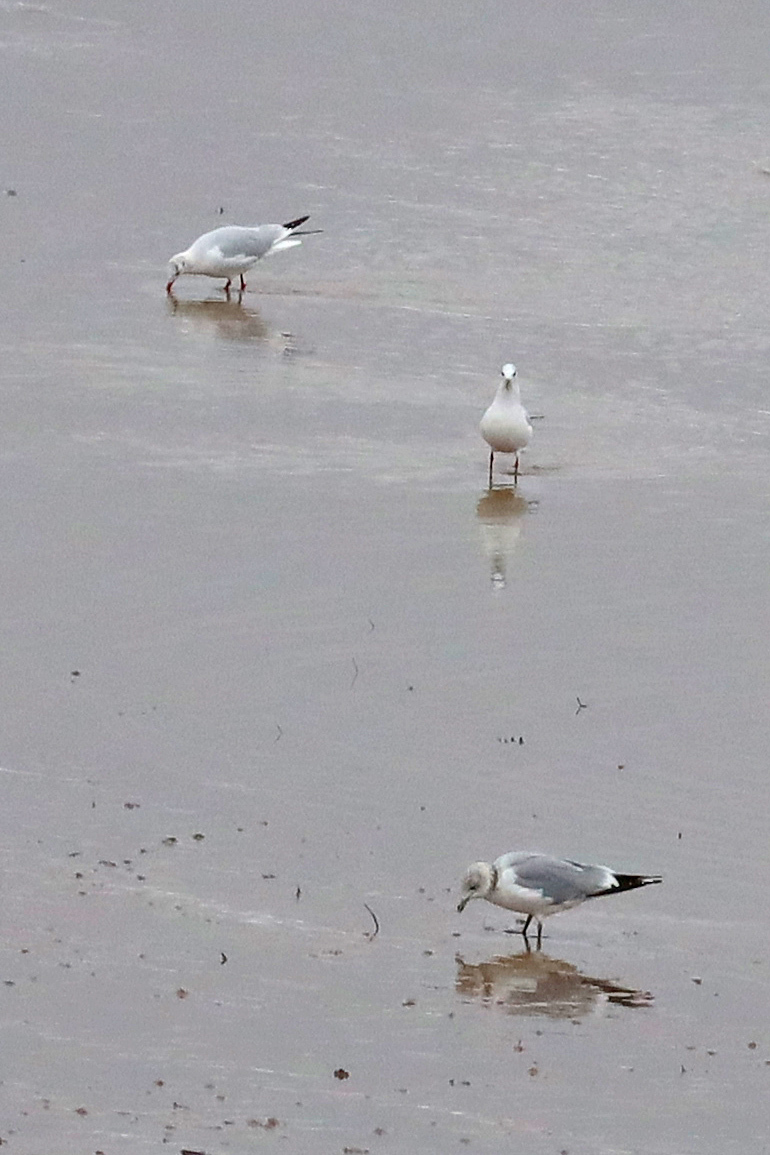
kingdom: Animalia
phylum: Chordata
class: Aves
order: Charadriiformes
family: Laridae
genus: Chroicocephalus
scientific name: Chroicocephalus ridibundus
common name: Black-headed gull
